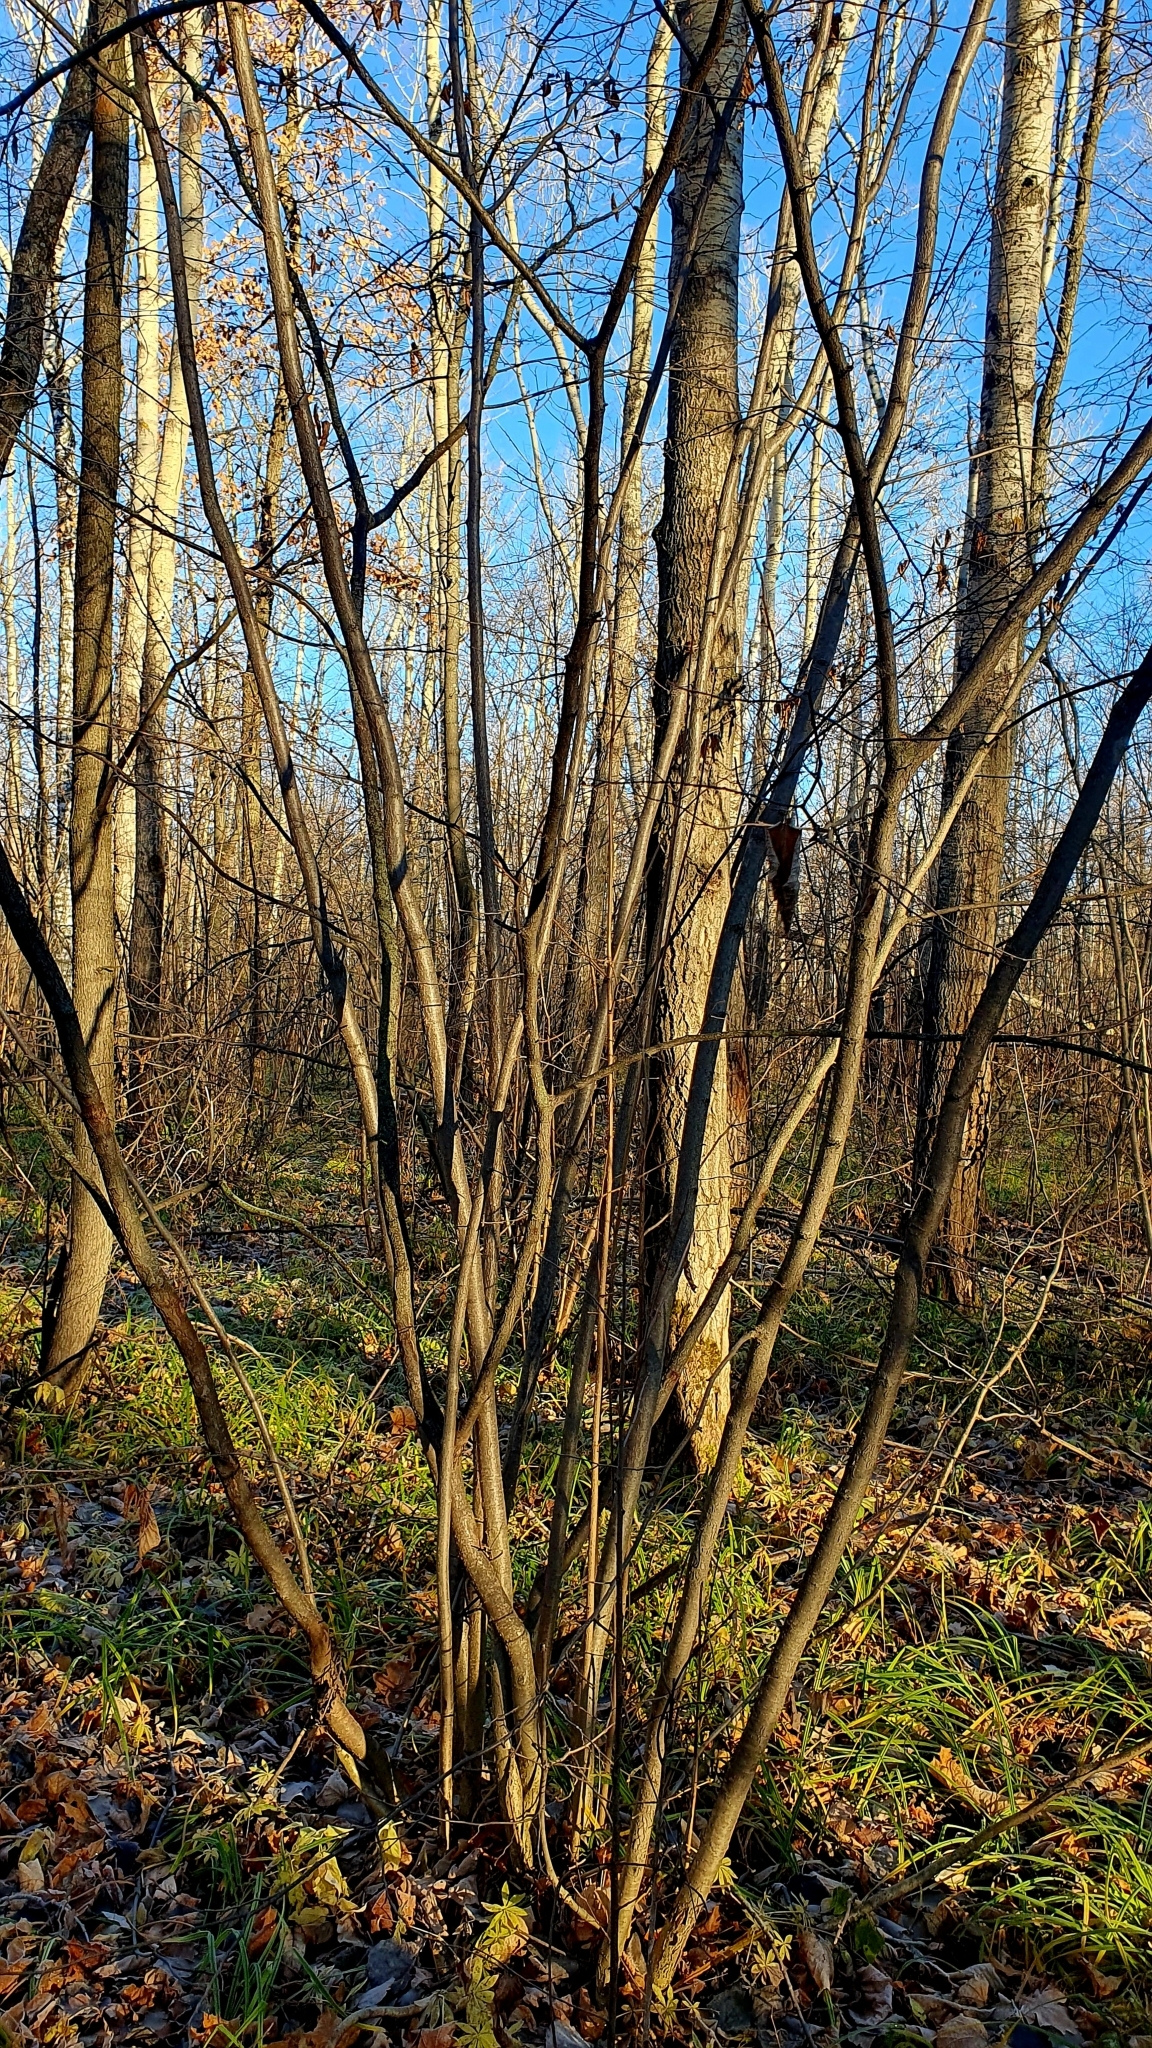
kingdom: Plantae
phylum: Tracheophyta
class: Magnoliopsida
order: Fagales
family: Betulaceae
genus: Corylus
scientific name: Corylus avellana
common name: European hazel
